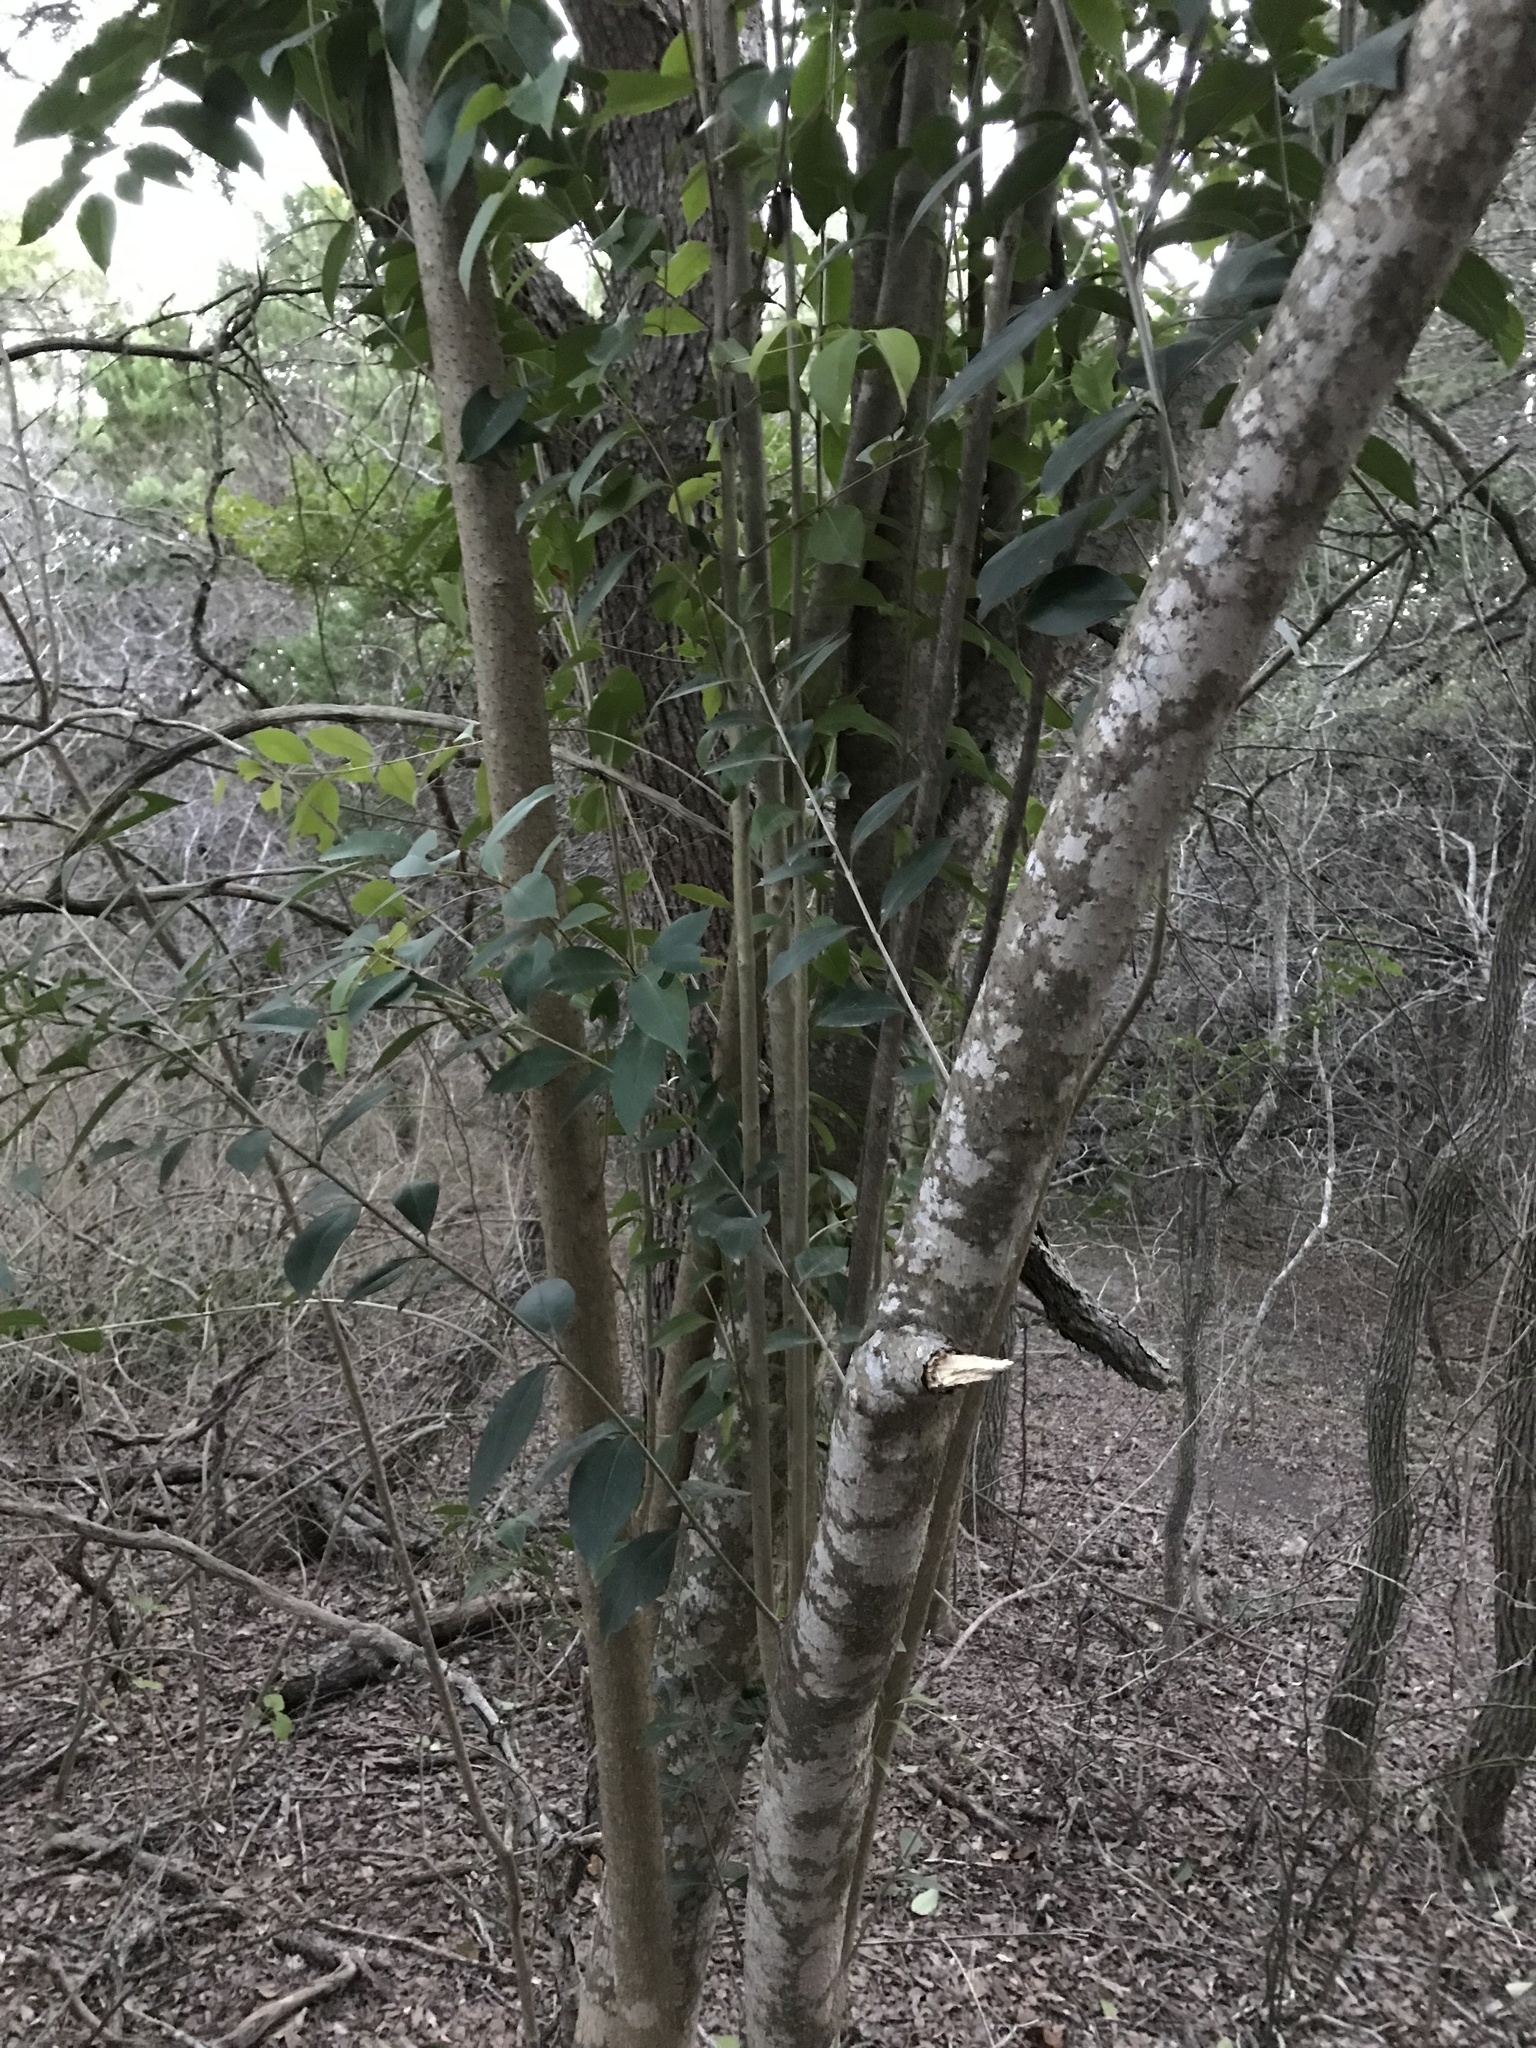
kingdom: Plantae
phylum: Tracheophyta
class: Magnoliopsida
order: Lamiales
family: Oleaceae
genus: Ligustrum
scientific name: Ligustrum lucidum
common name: Glossy privet
